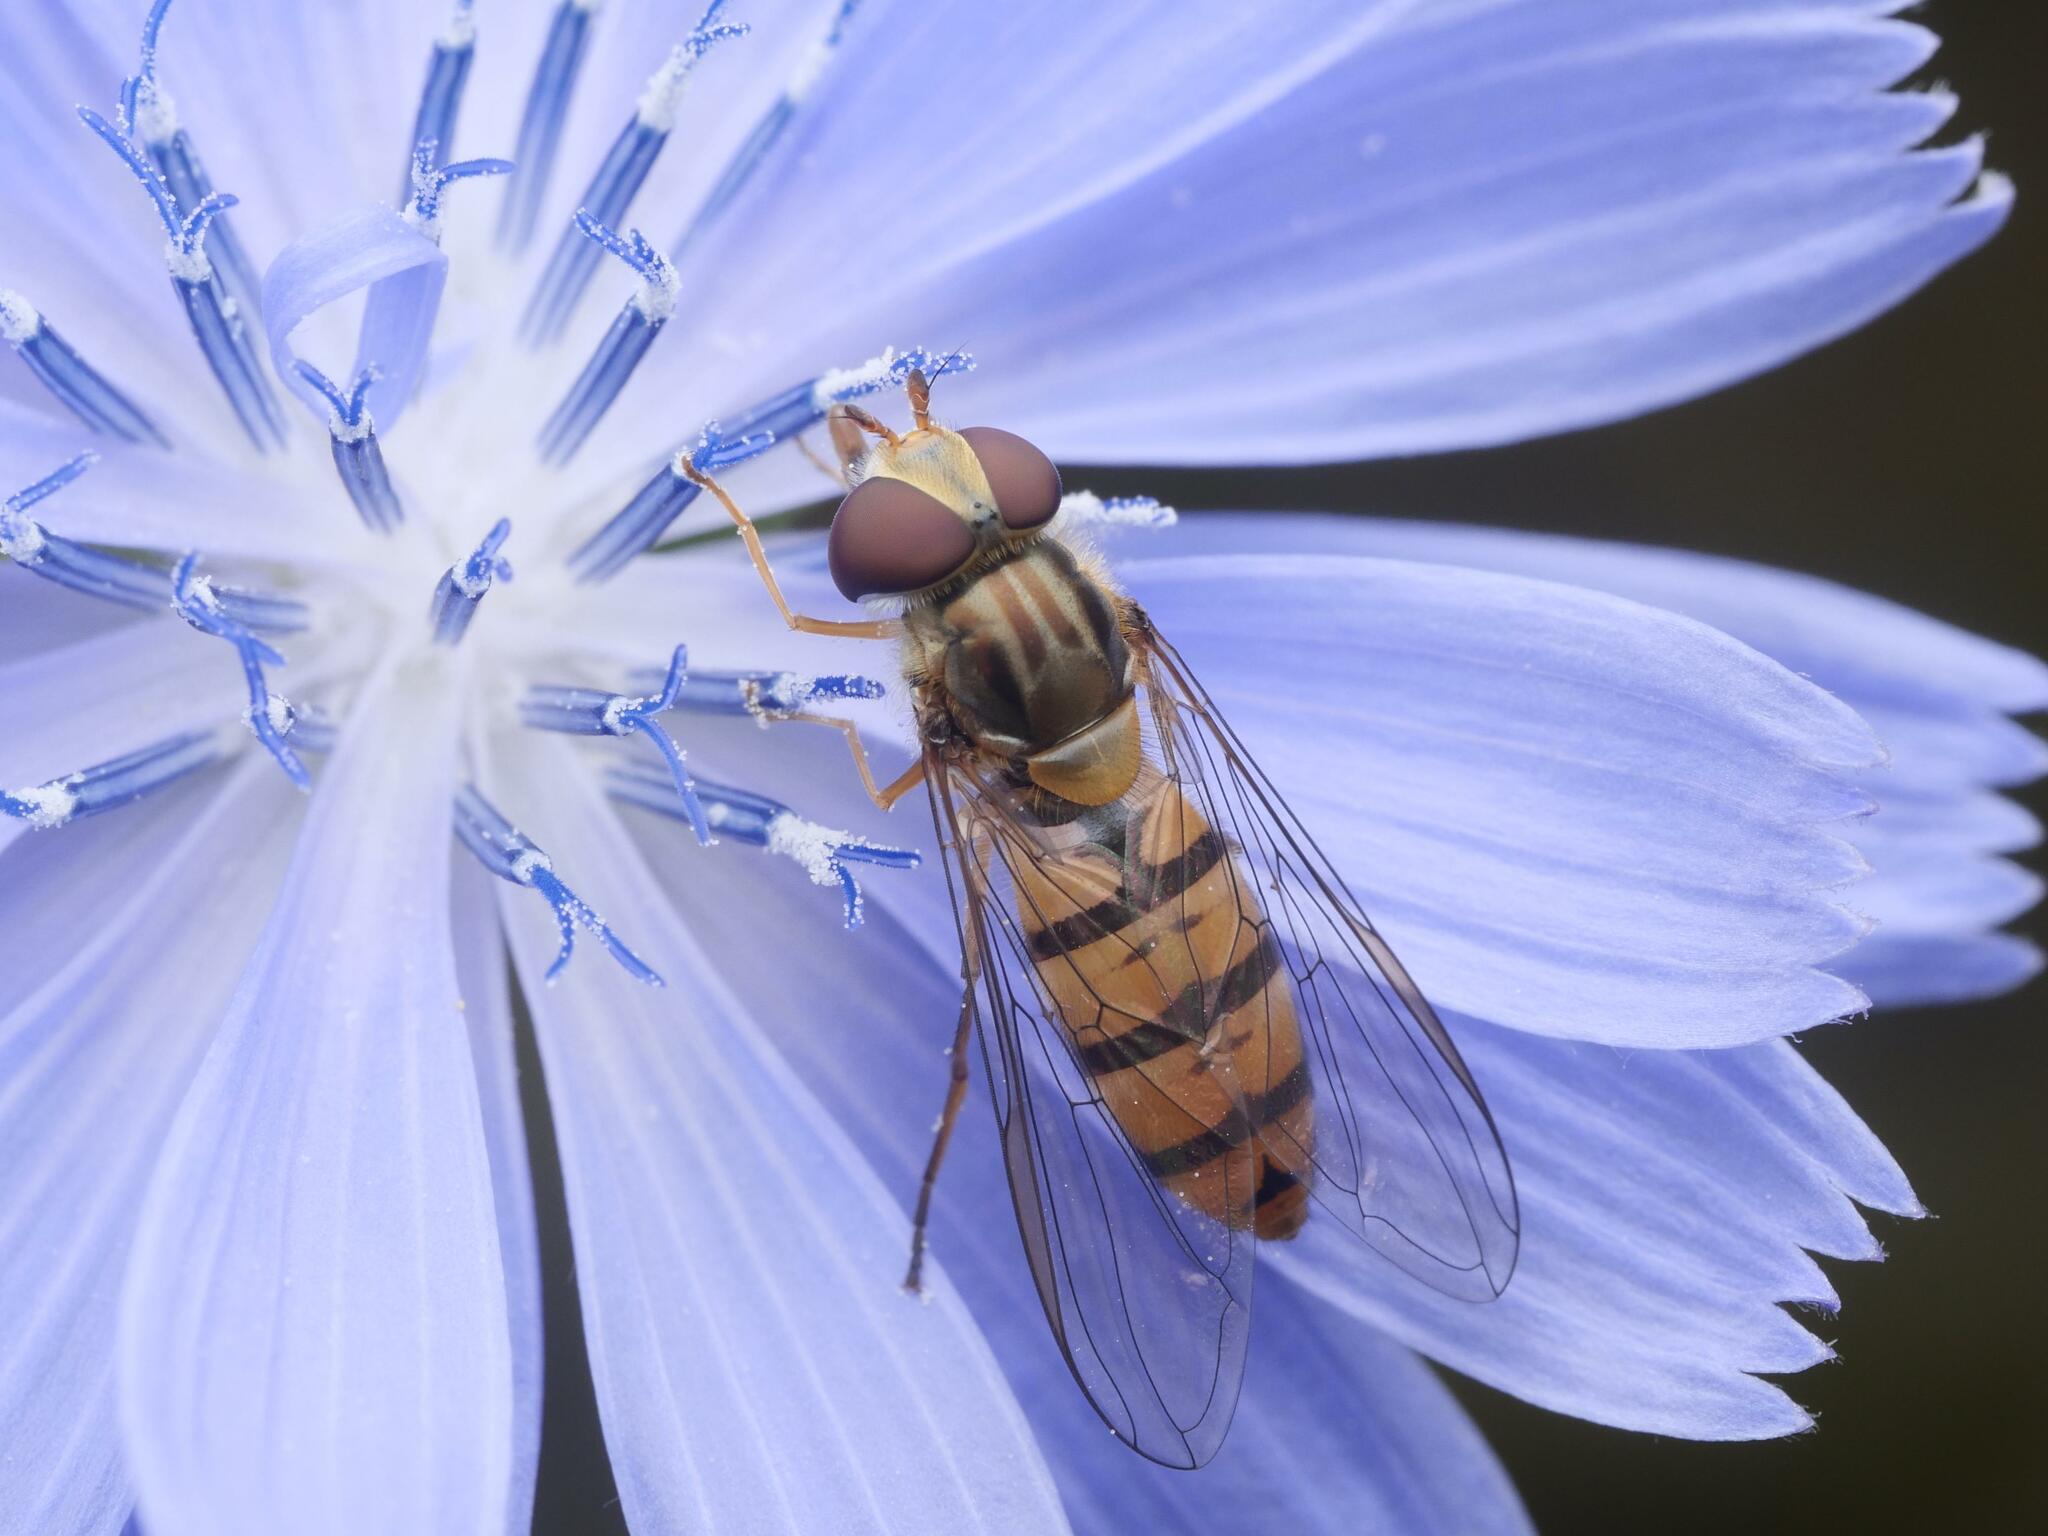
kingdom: Animalia
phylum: Arthropoda
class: Insecta
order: Diptera
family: Syrphidae
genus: Episyrphus
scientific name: Episyrphus balteatus
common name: Marmalade hoverfly
